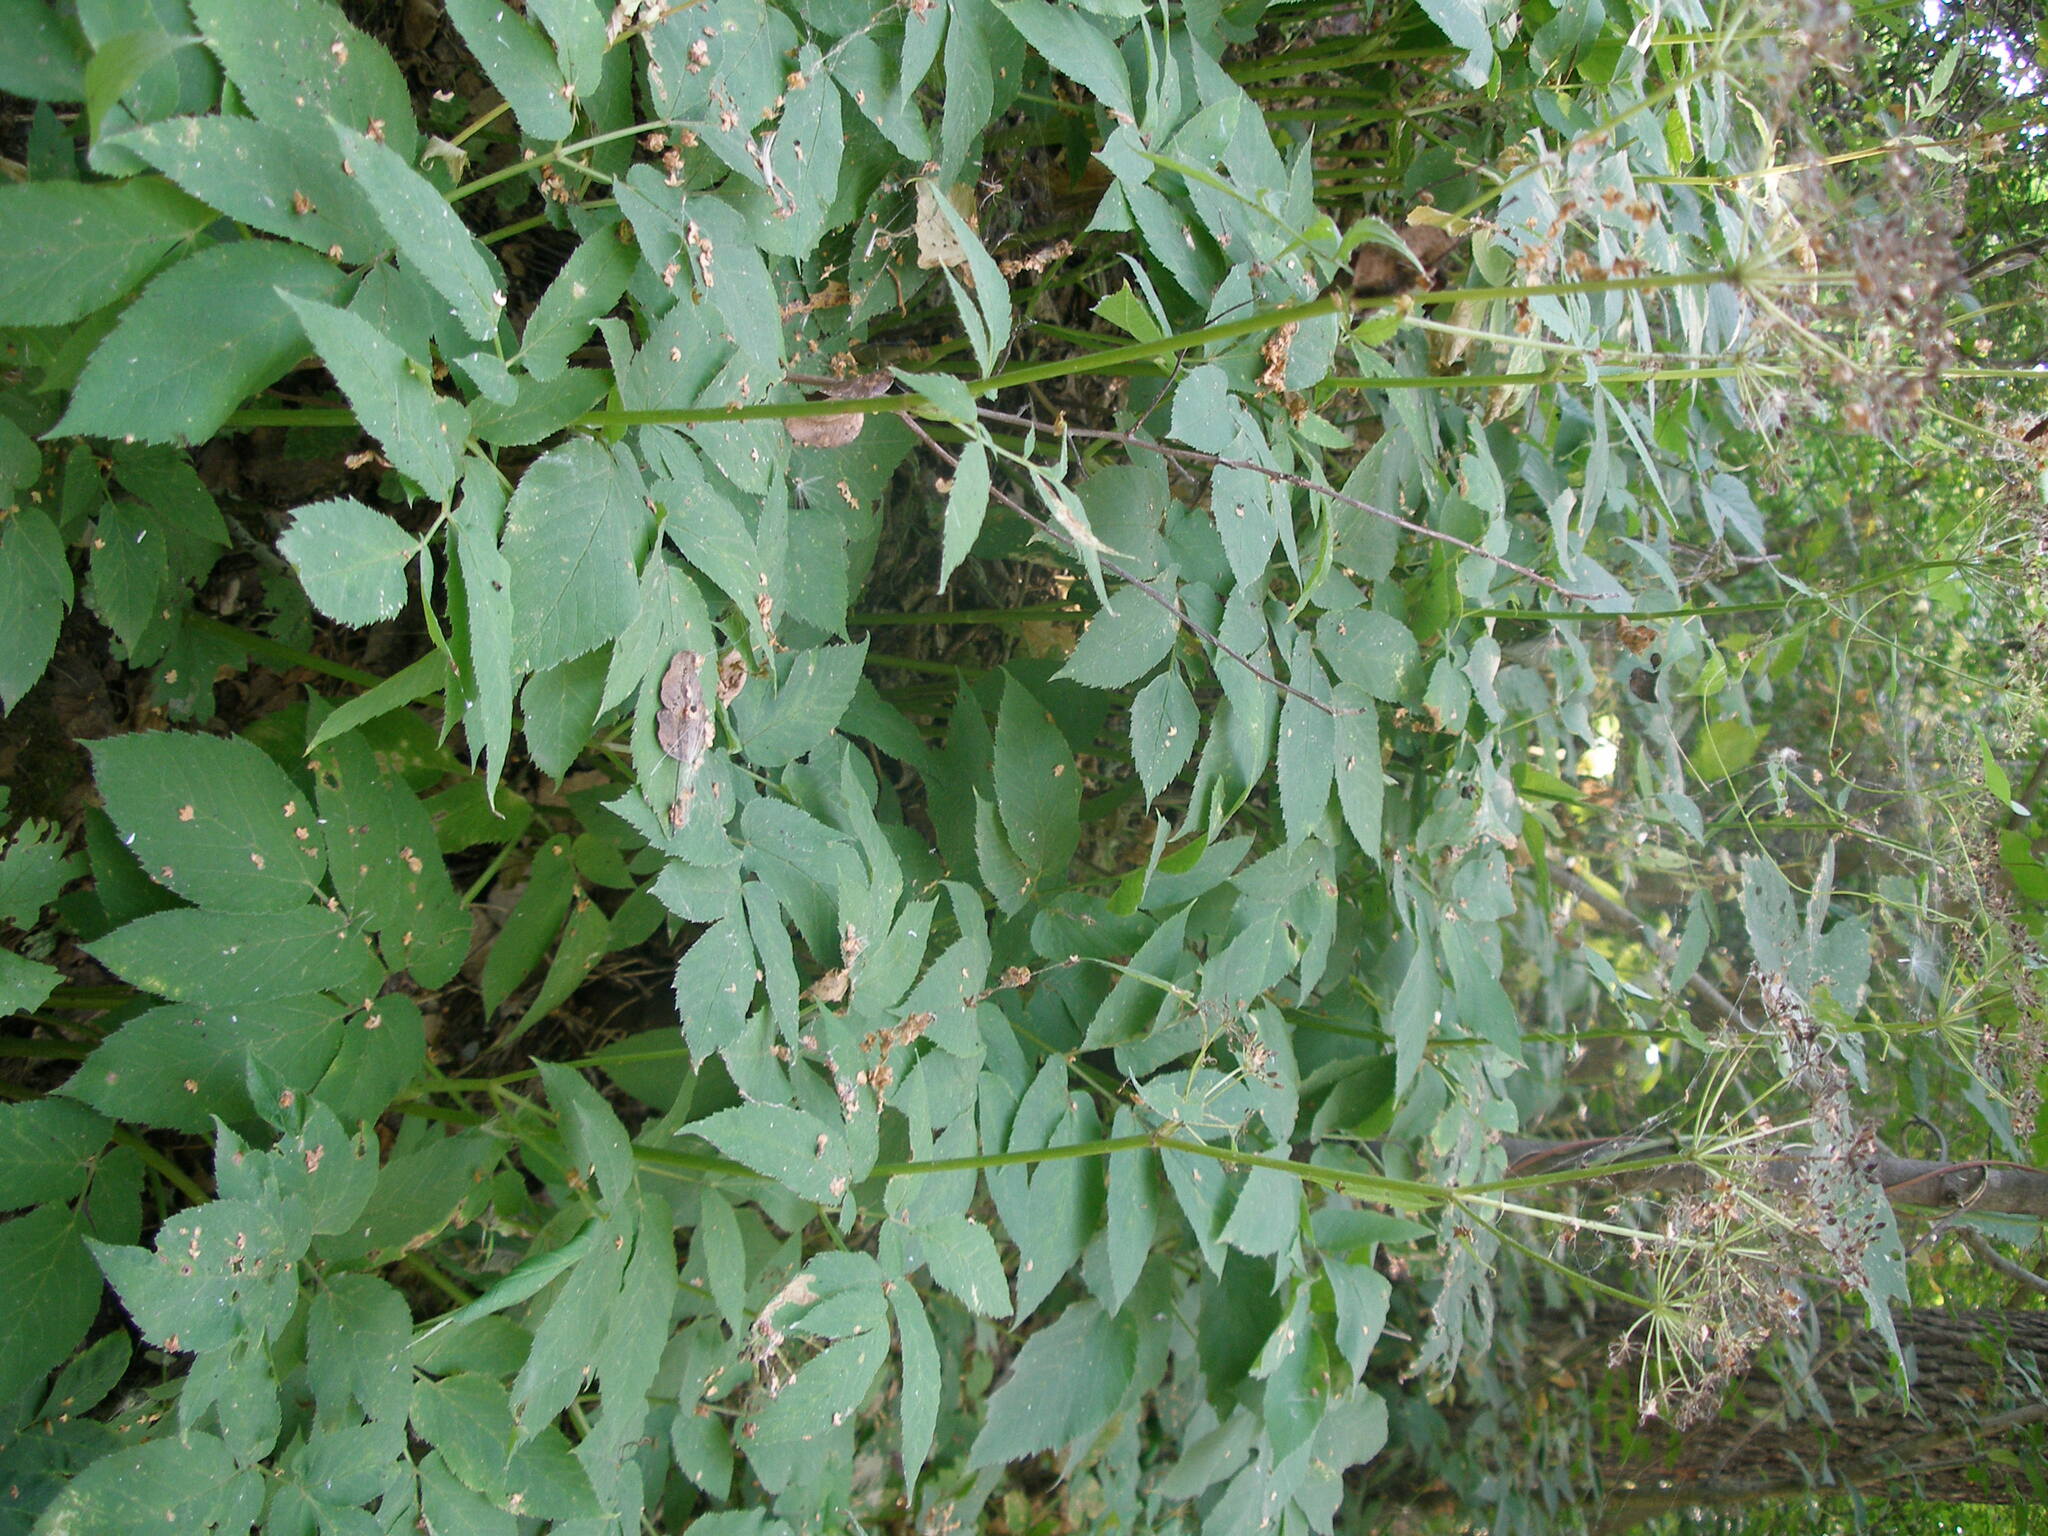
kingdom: Plantae
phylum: Tracheophyta
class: Magnoliopsida
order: Apiales
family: Apiaceae
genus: Aegopodium
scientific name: Aegopodium podagraria
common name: Ground-elder
